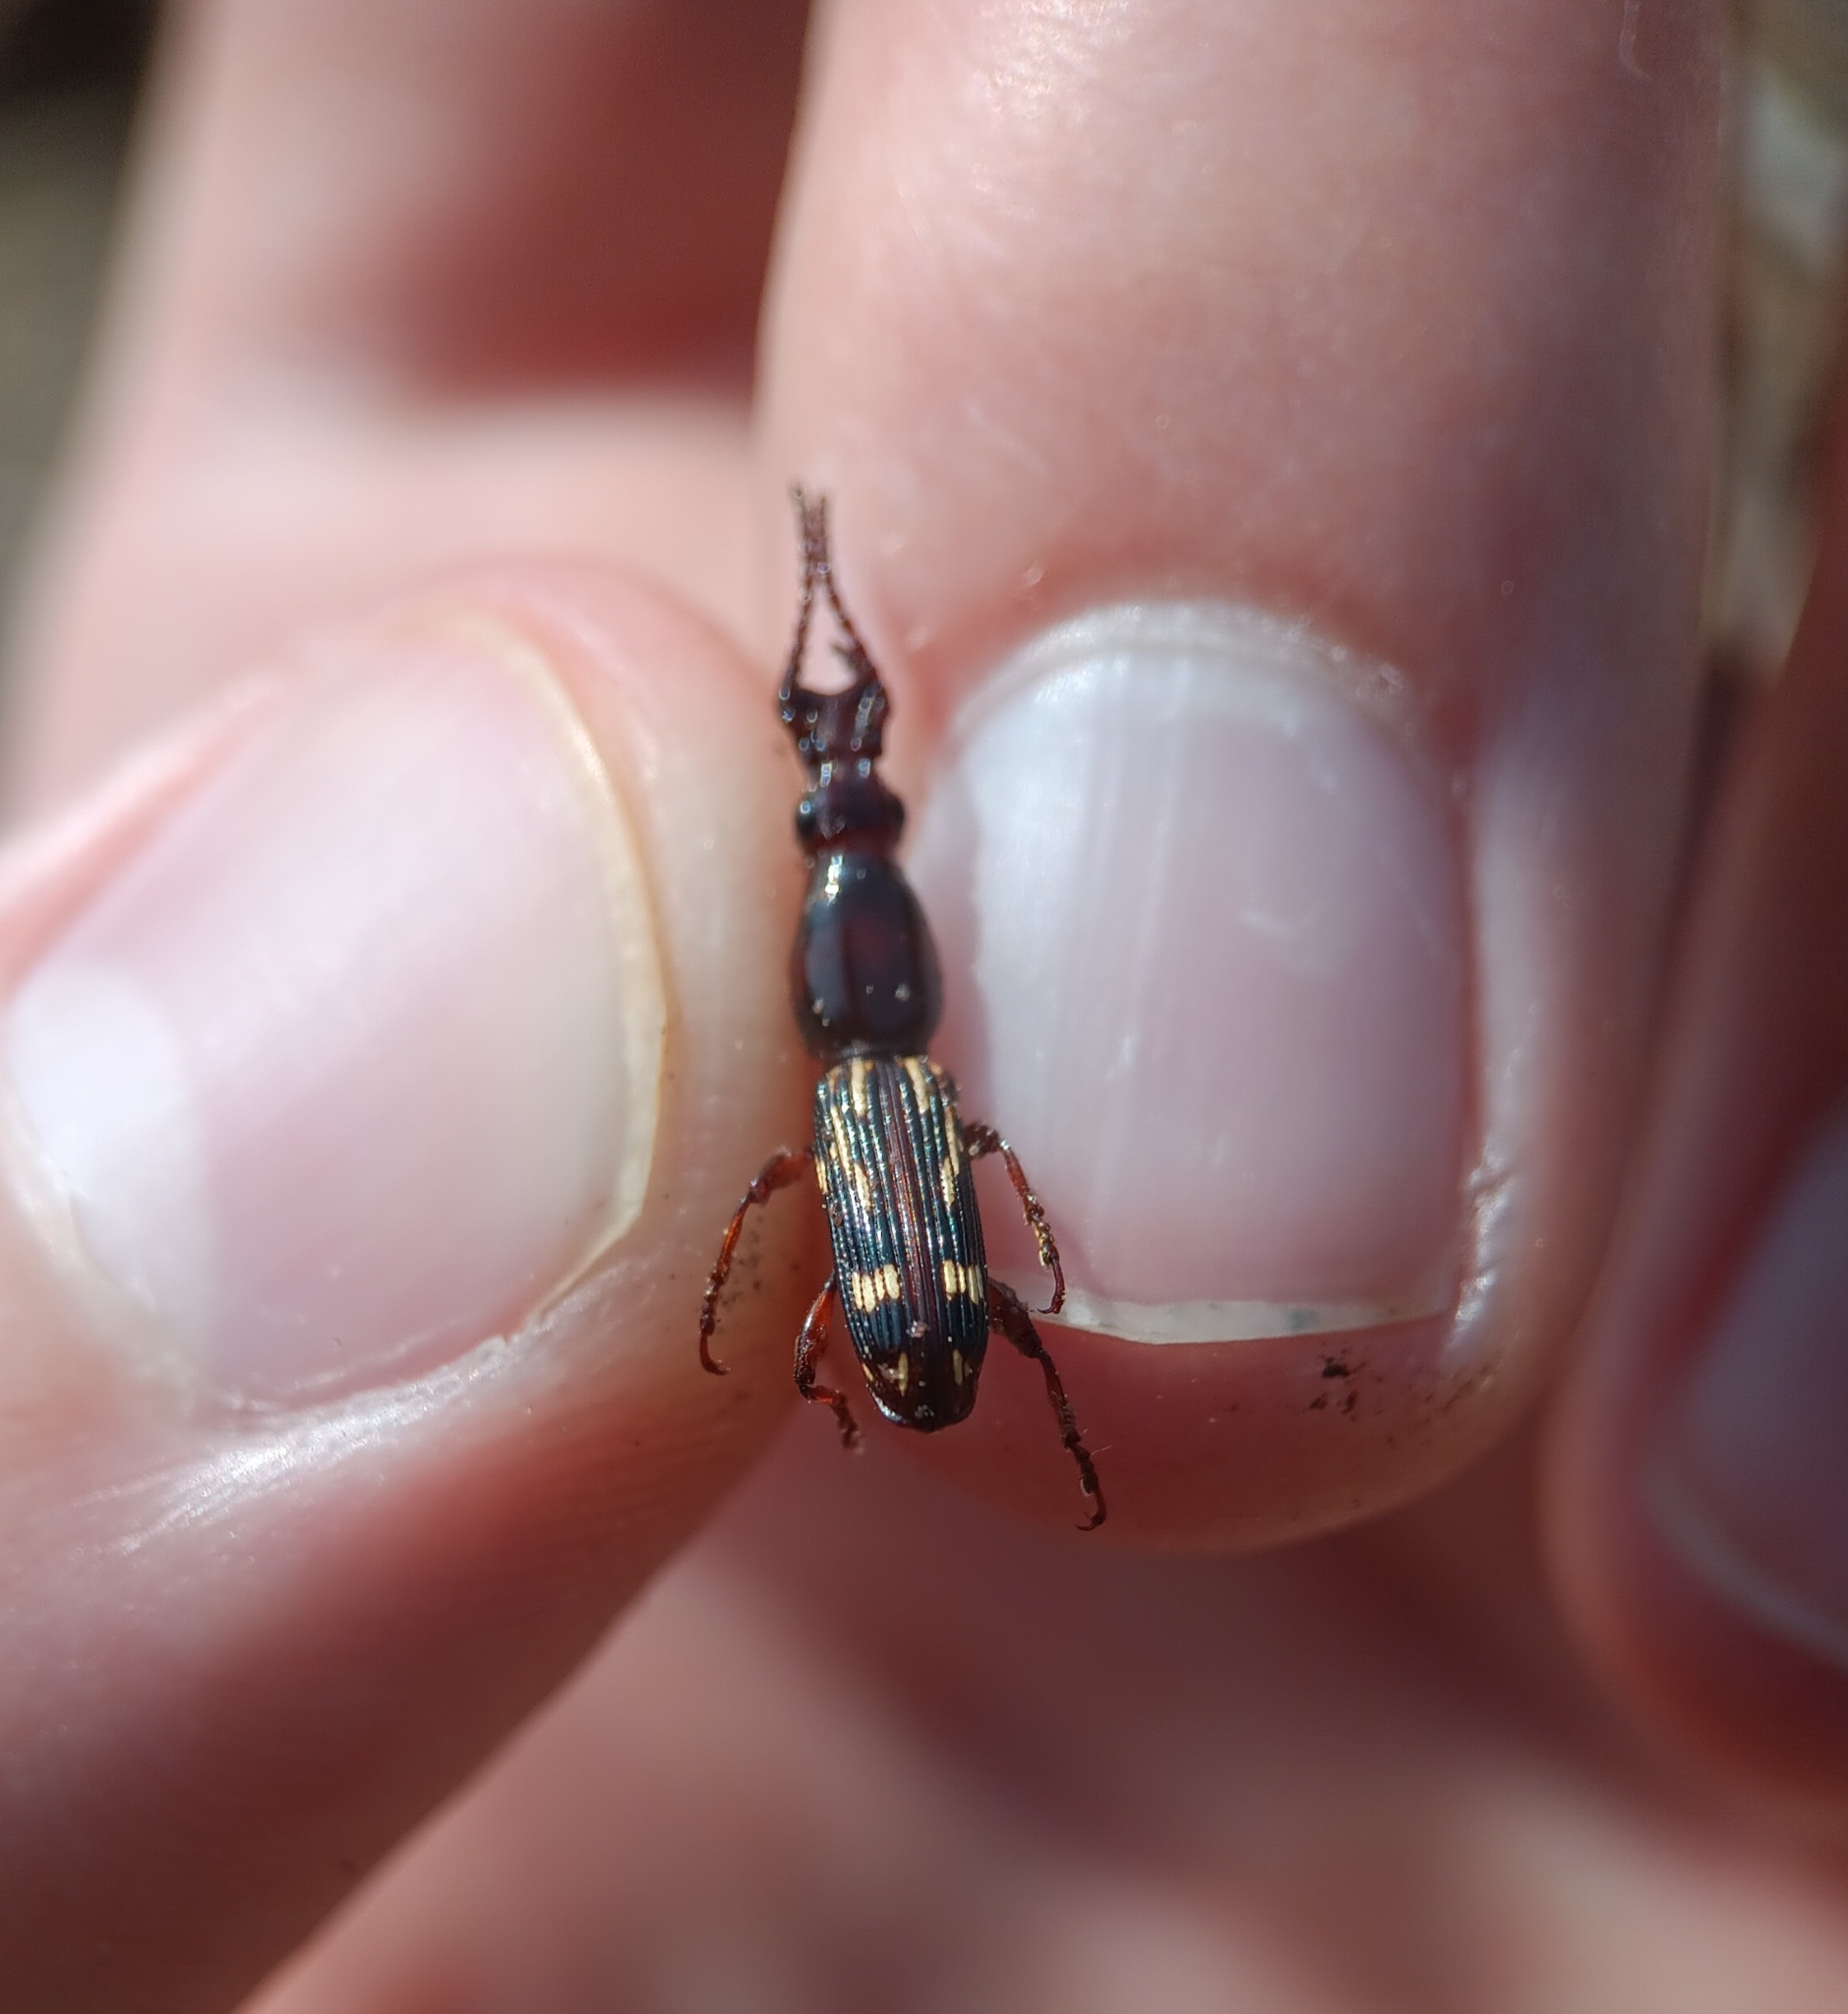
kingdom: Animalia
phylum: Arthropoda
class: Insecta
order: Coleoptera
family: Brentidae
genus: Arrenodes
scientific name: Arrenodes minutus
